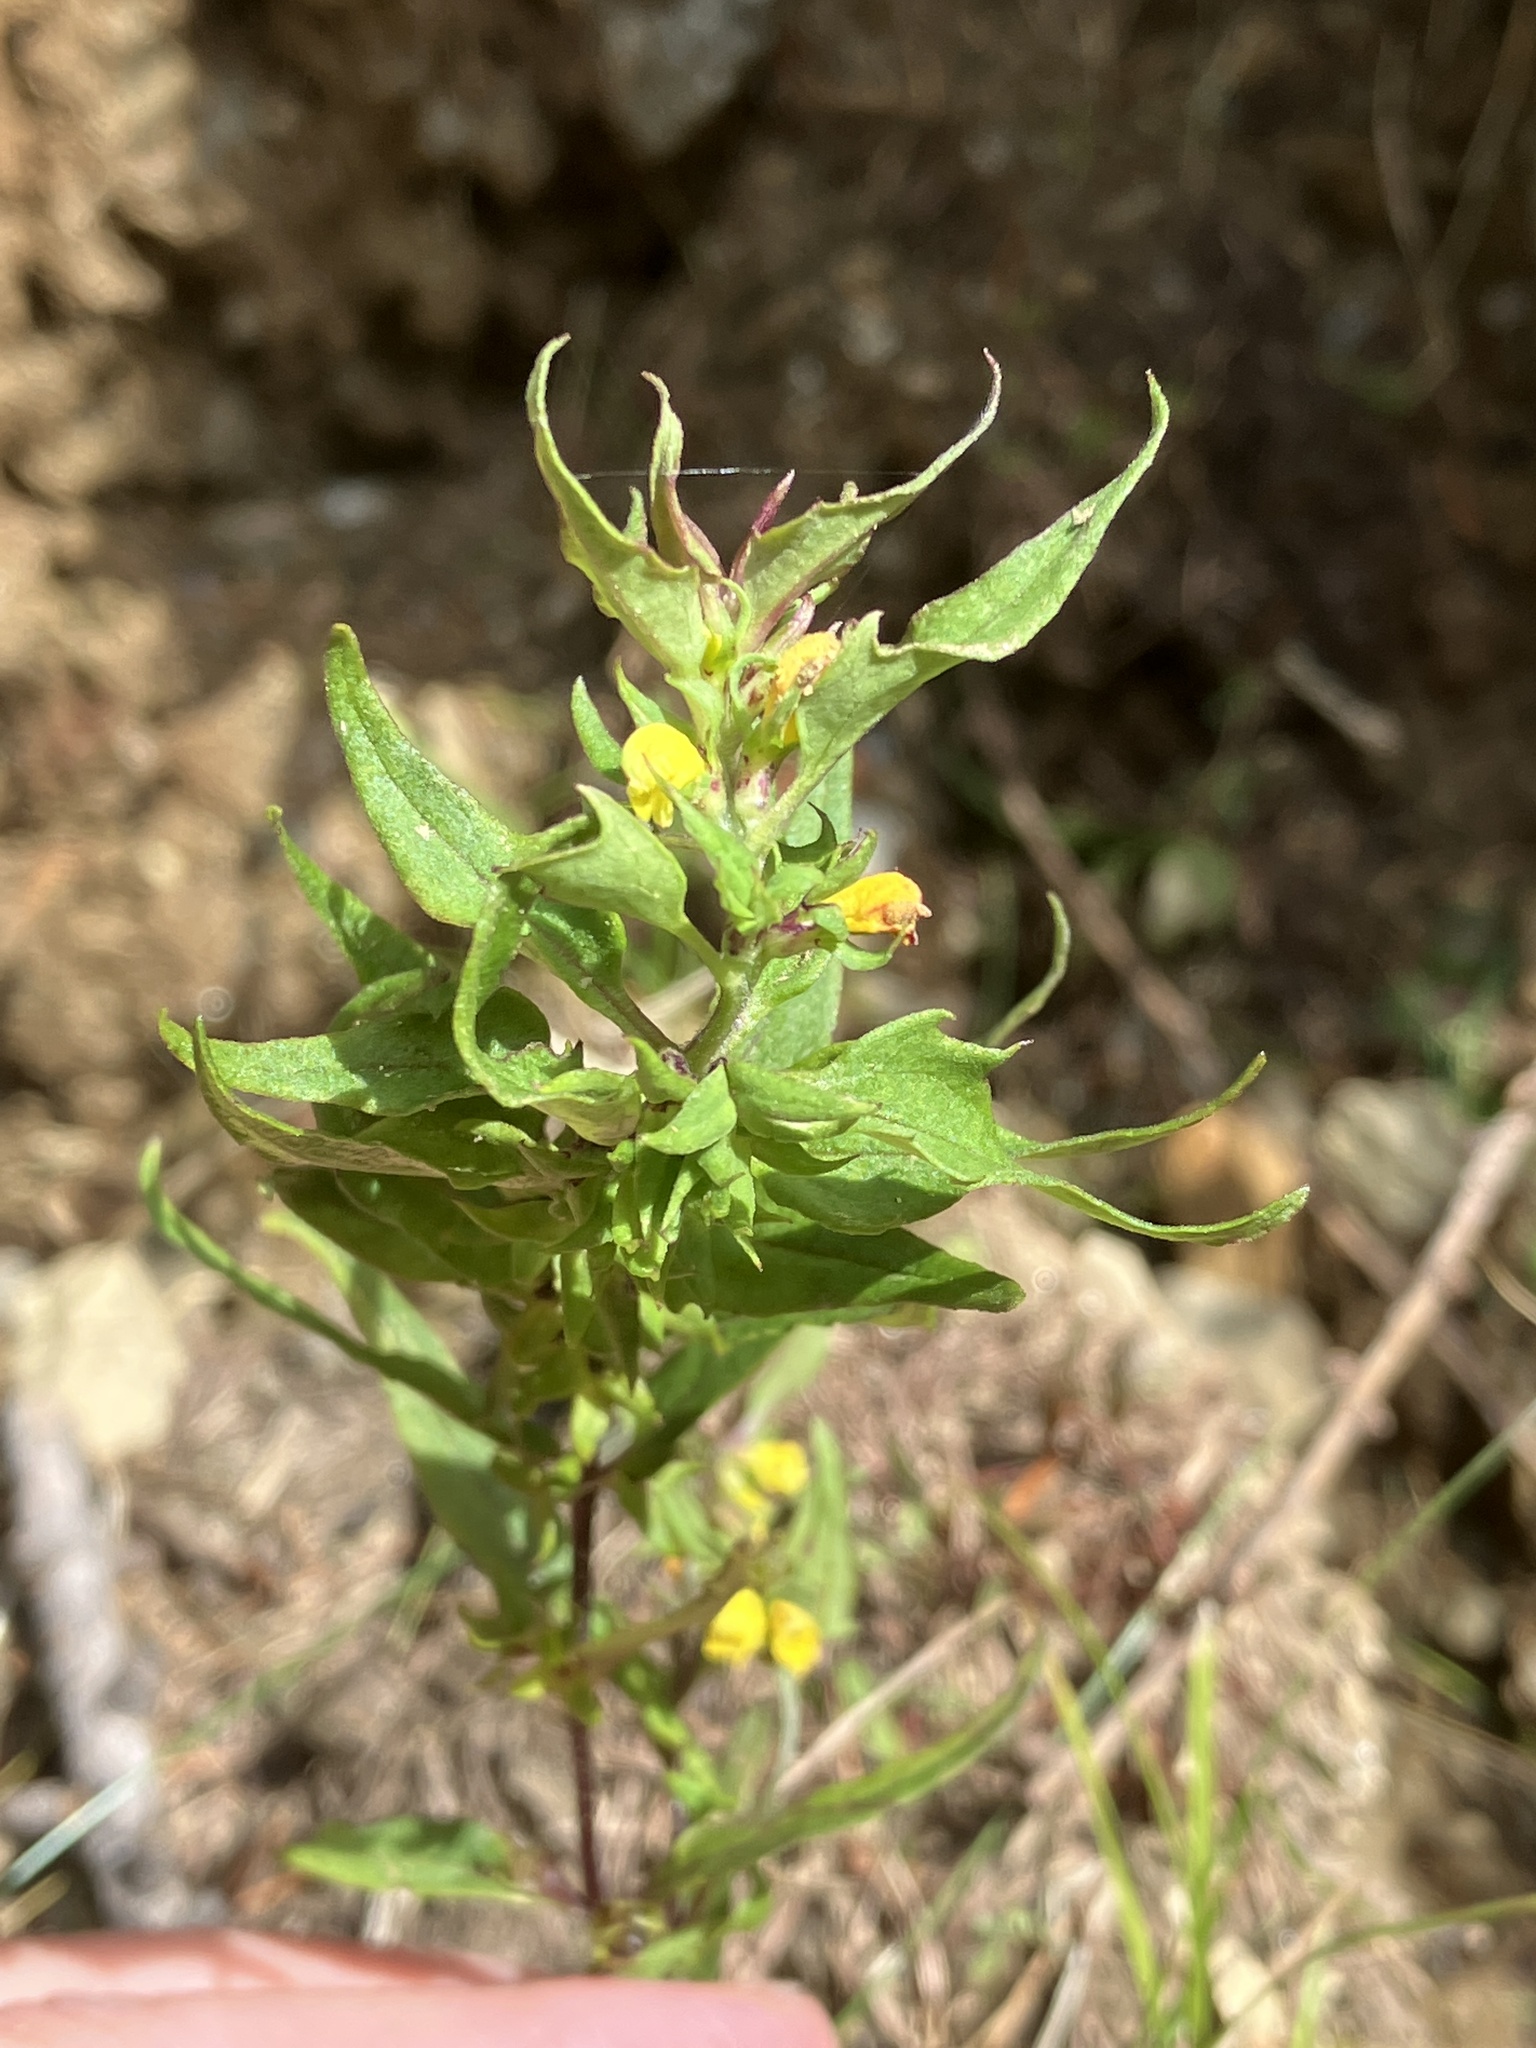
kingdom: Plantae
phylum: Tracheophyta
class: Magnoliopsida
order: Lamiales
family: Orobanchaceae
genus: Melampyrum
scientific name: Melampyrum sylvaticum
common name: Small cow-wheat
